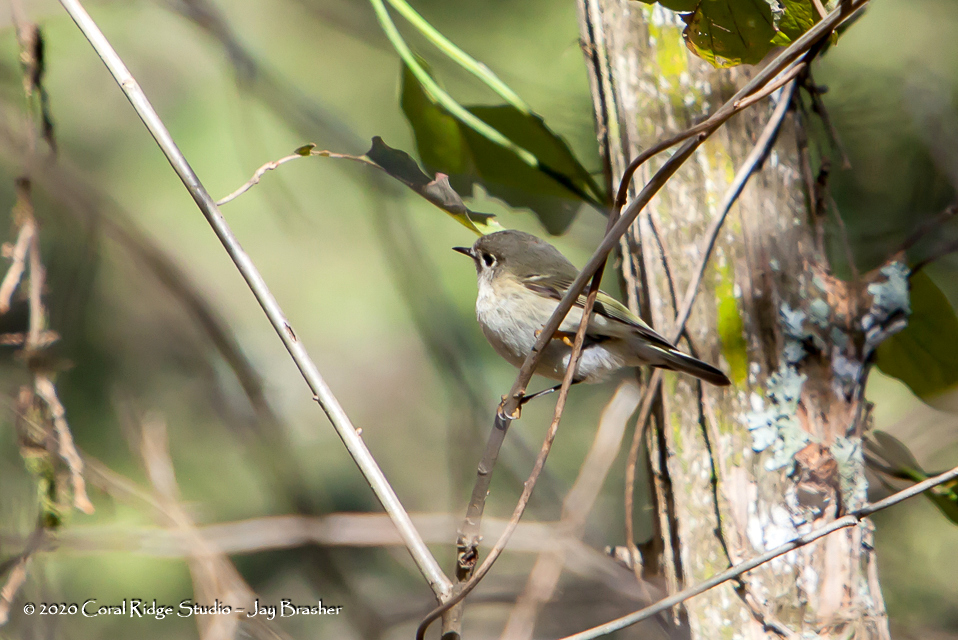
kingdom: Animalia
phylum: Chordata
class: Aves
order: Passeriformes
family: Regulidae
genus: Regulus
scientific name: Regulus calendula
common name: Ruby-crowned kinglet
